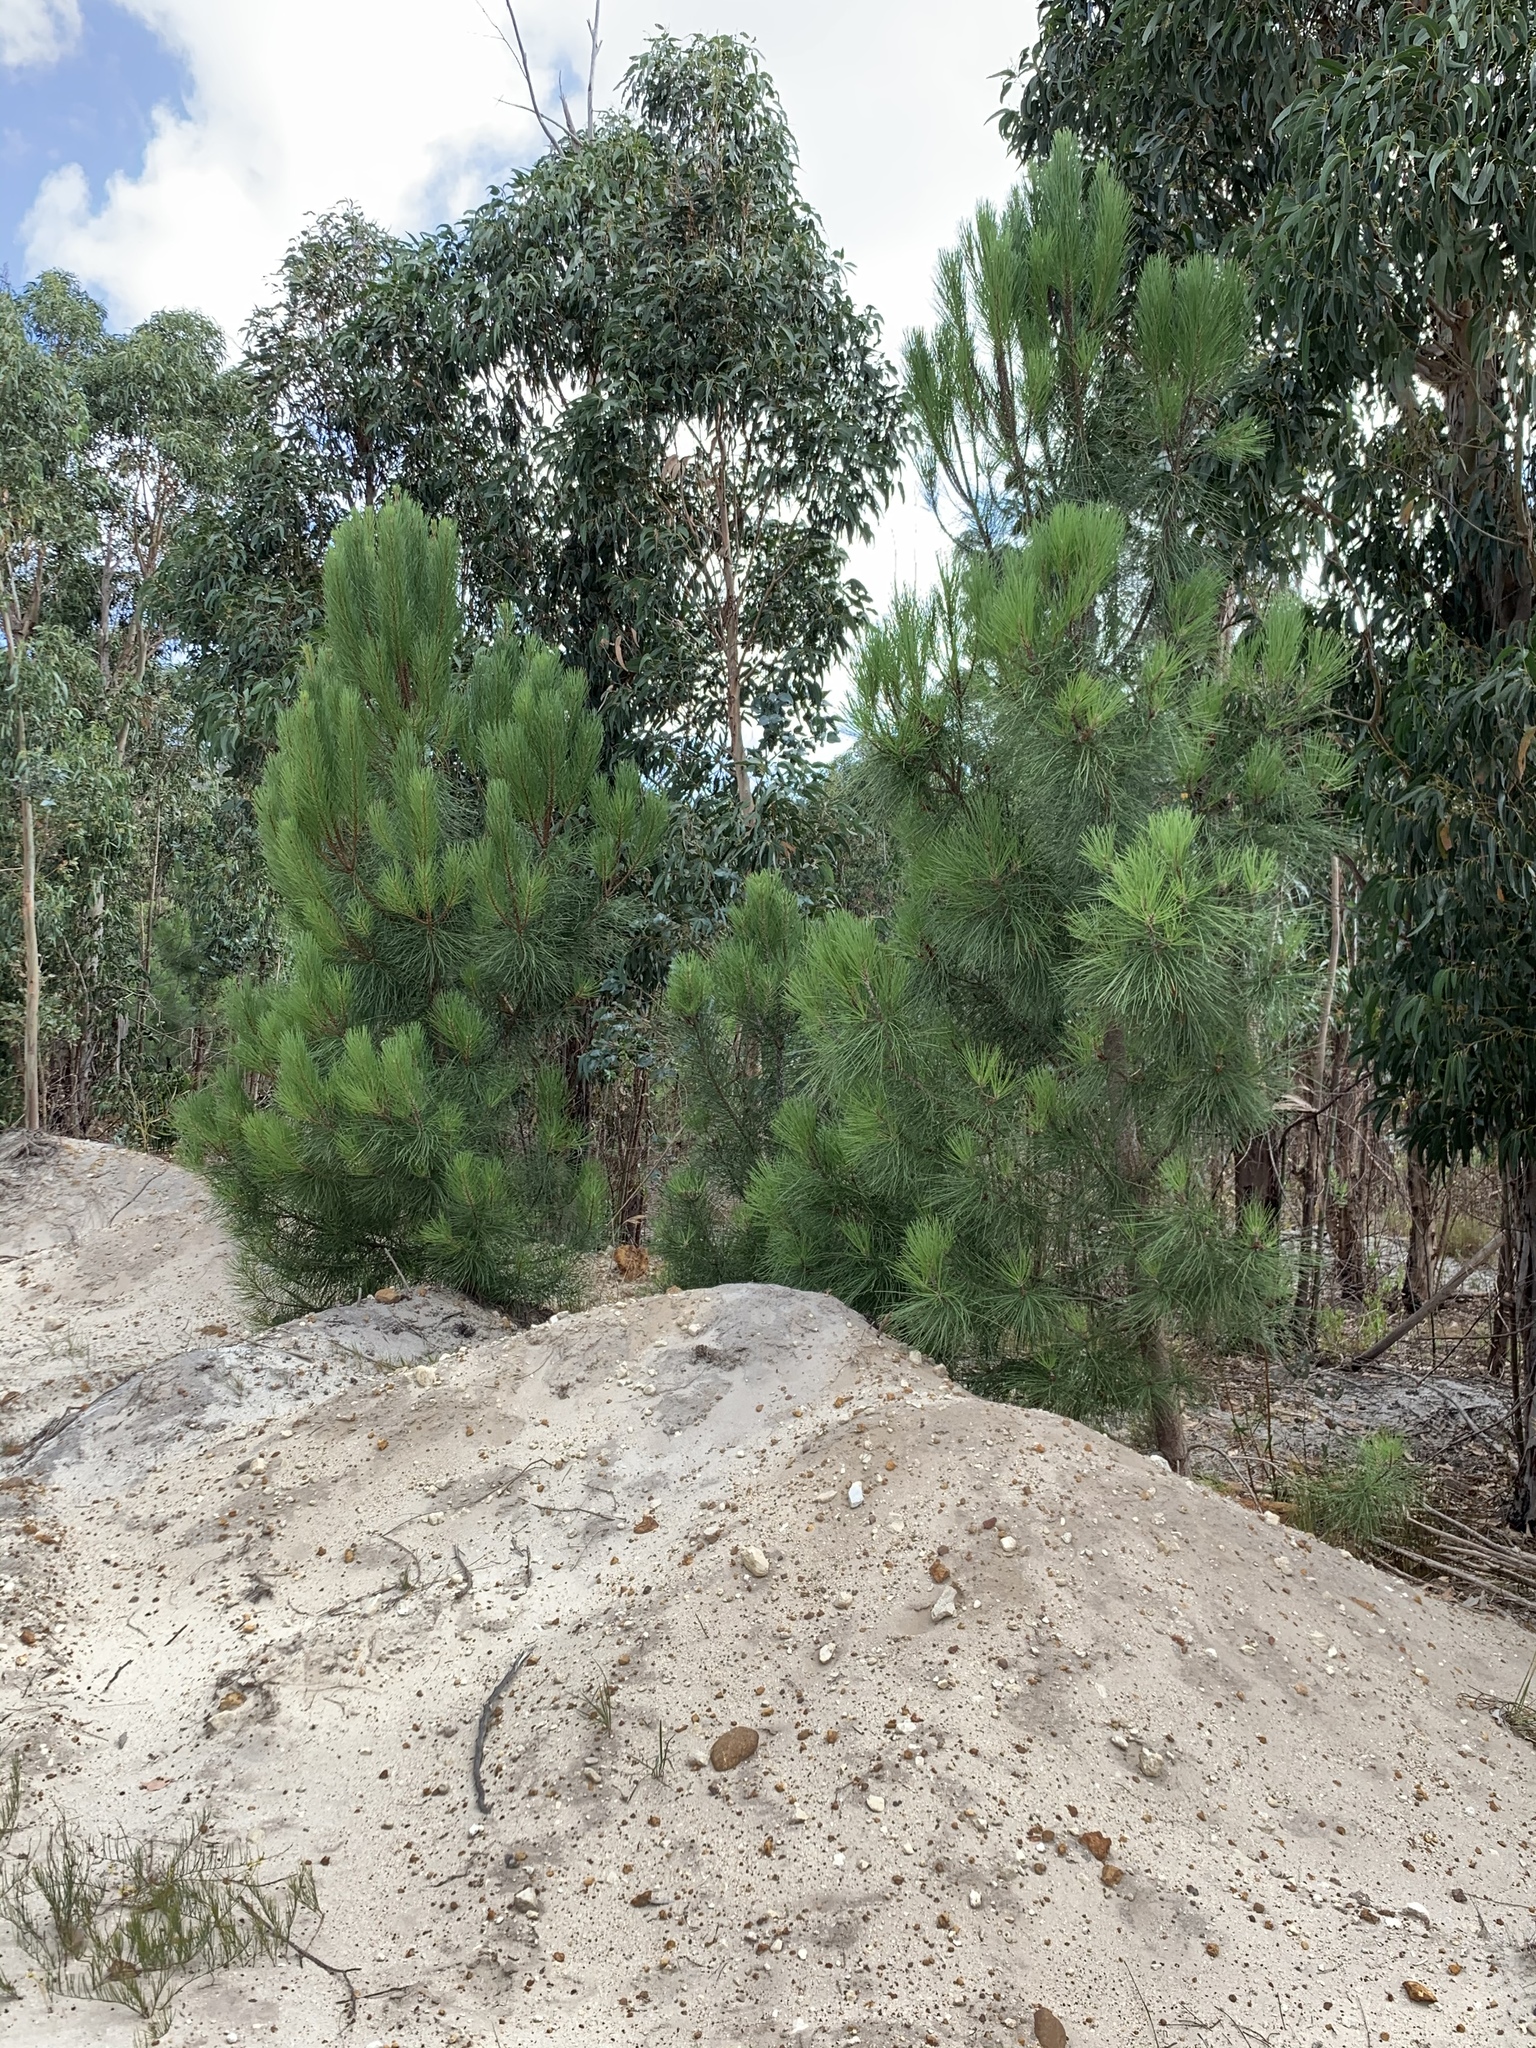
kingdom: Plantae
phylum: Tracheophyta
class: Pinopsida
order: Pinales
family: Pinaceae
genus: Pinus
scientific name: Pinus pinaster
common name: Maritime pine
